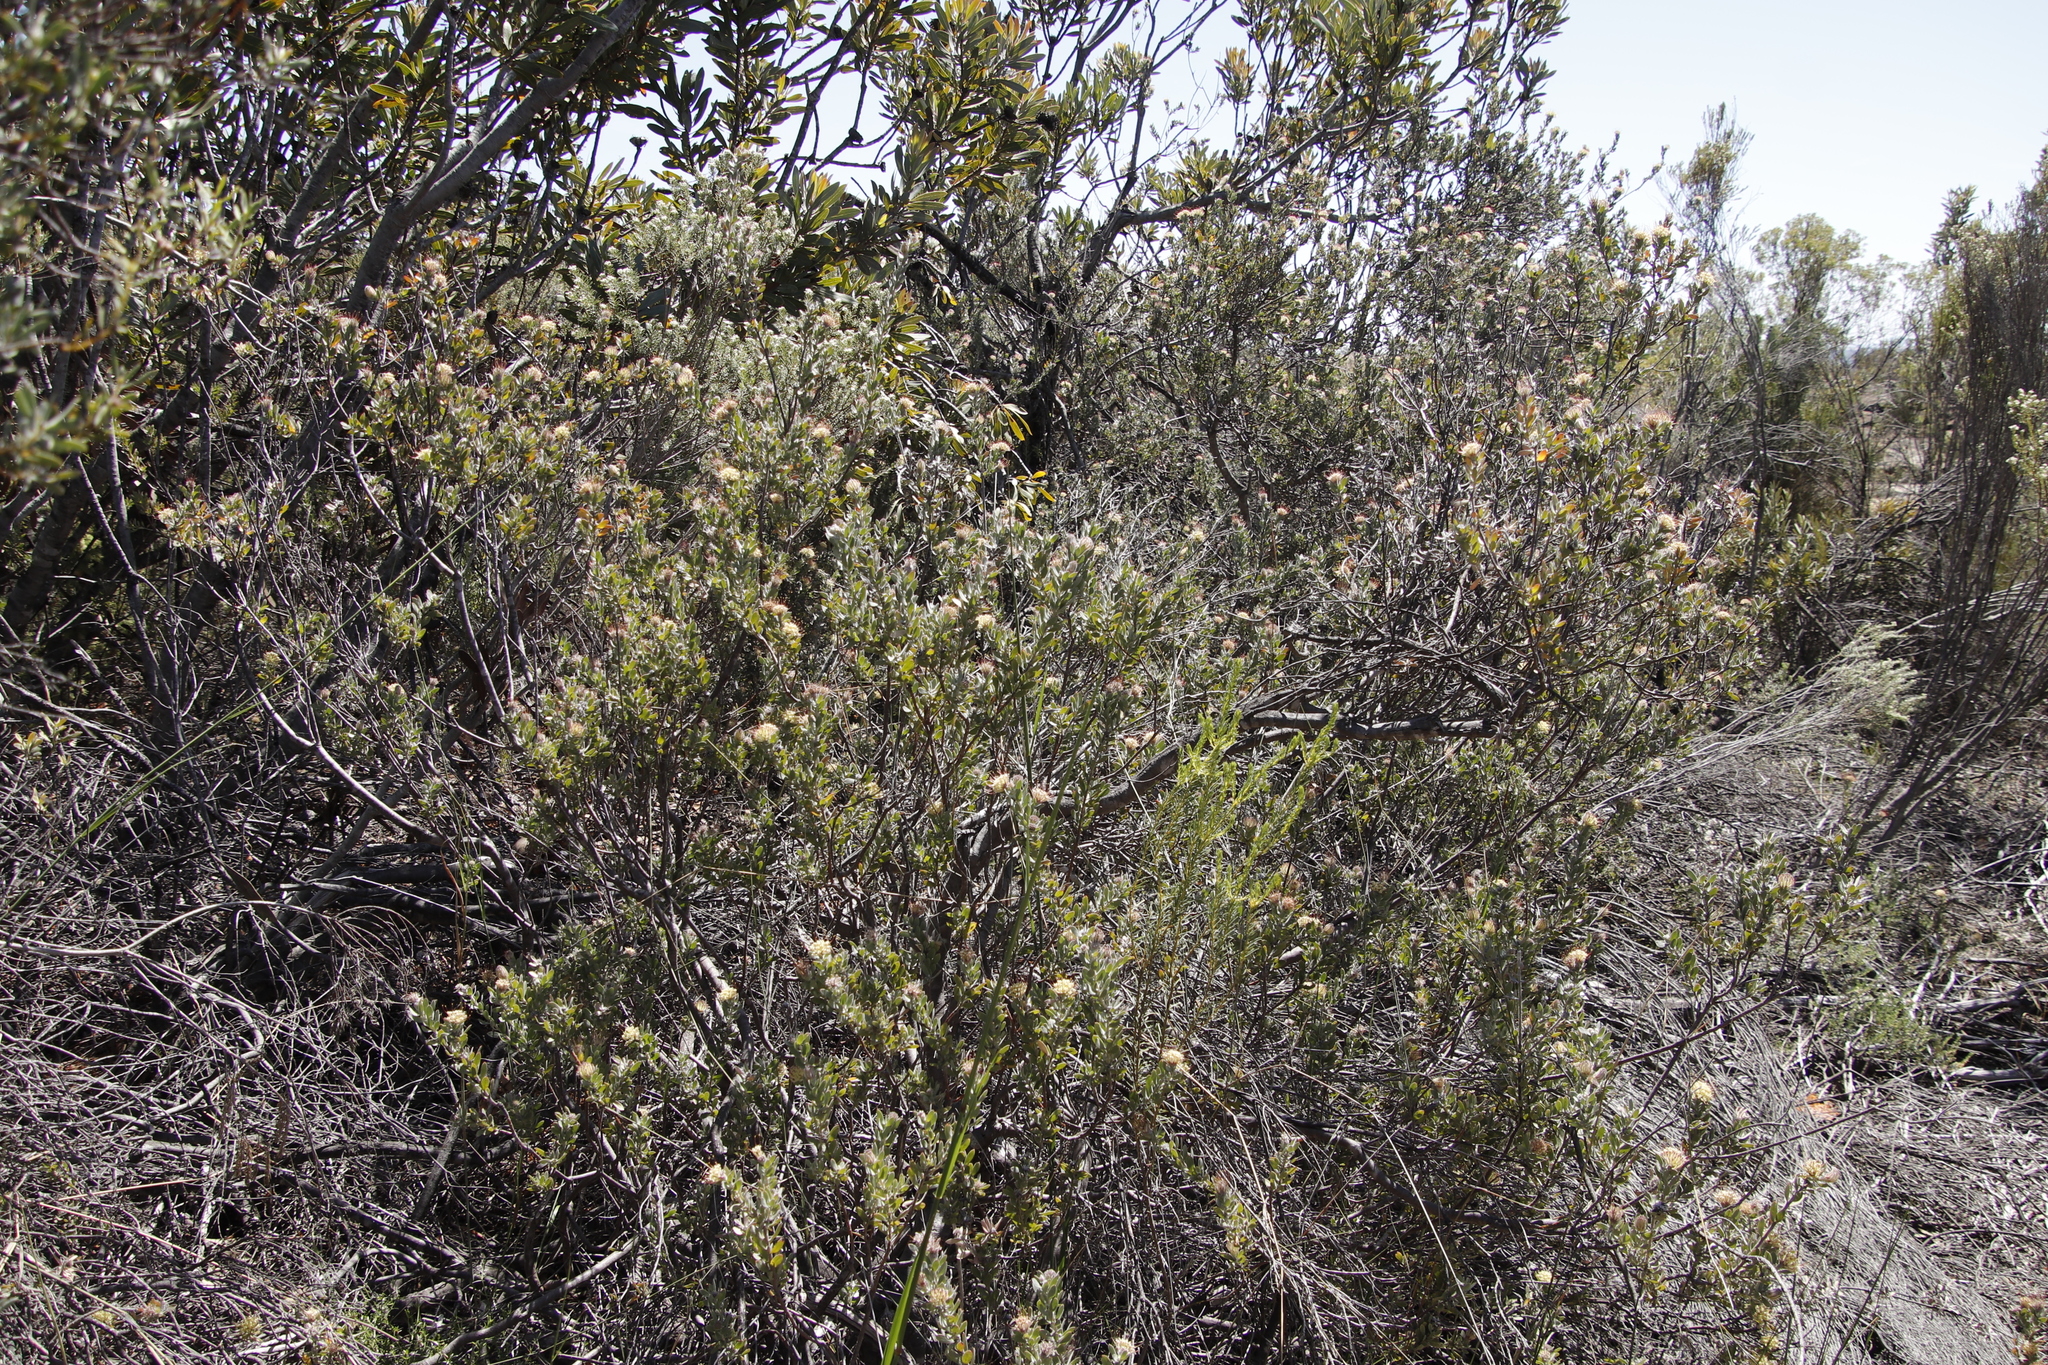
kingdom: Plantae
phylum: Tracheophyta
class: Magnoliopsida
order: Proteales
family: Proteaceae
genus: Leucospermum
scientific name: Leucospermum calligerum
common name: Arid pincushion
